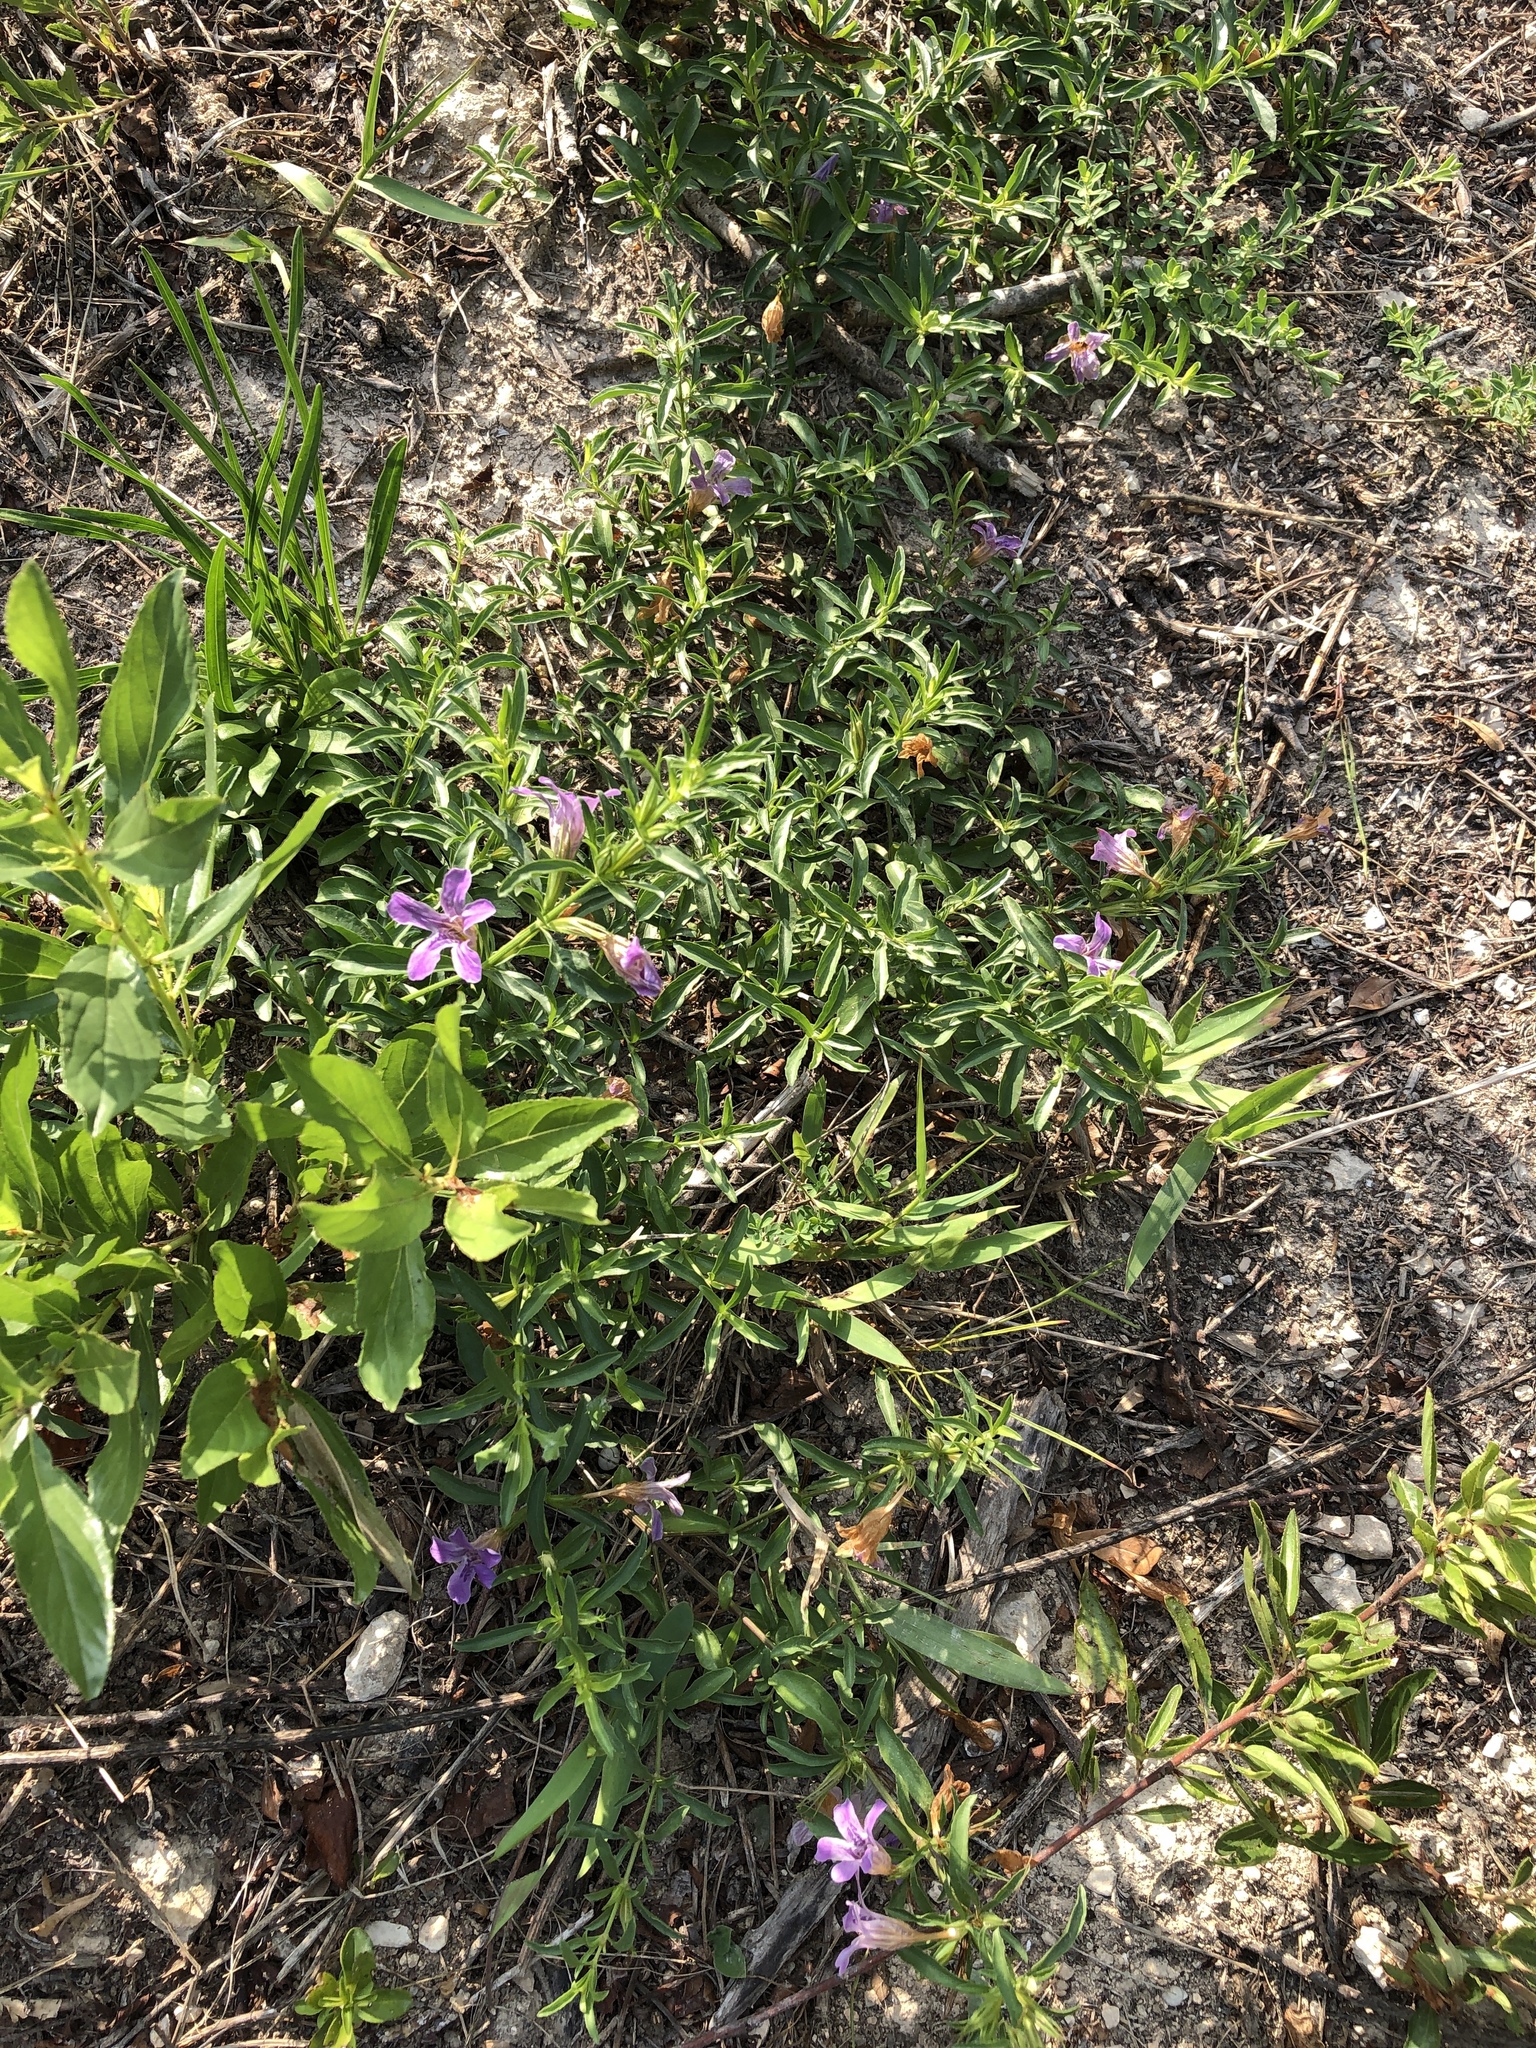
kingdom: Plantae
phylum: Tracheophyta
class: Magnoliopsida
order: Lamiales
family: Acanthaceae
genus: Dyschoriste
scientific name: Dyschoriste linearis
